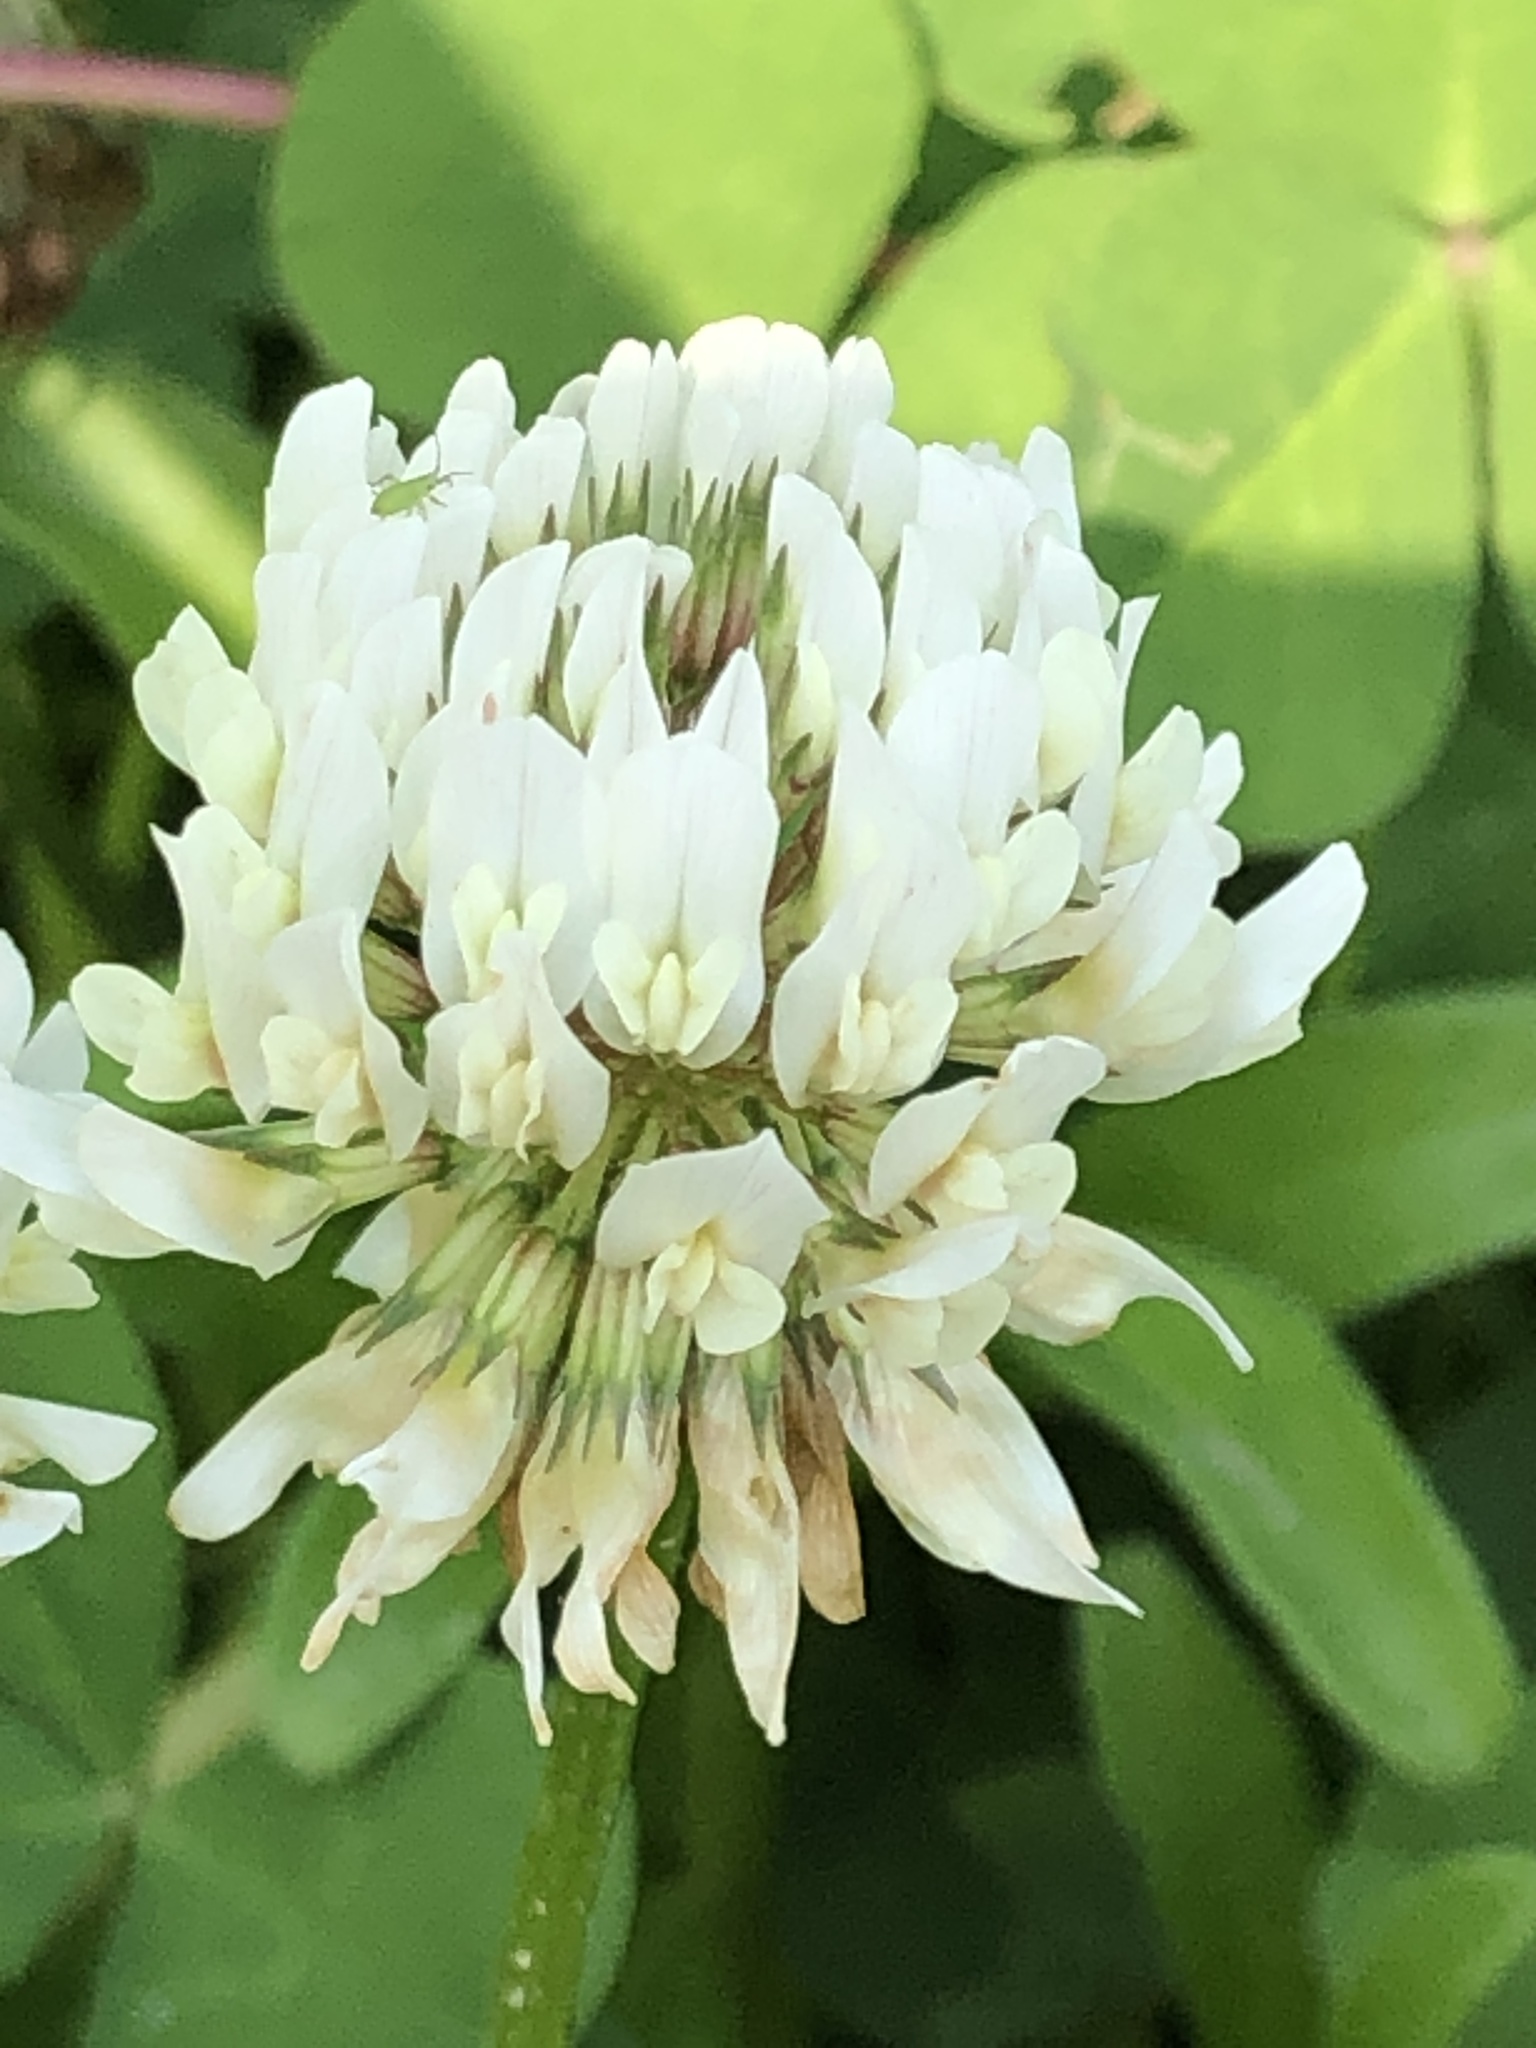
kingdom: Plantae
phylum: Tracheophyta
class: Magnoliopsida
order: Fabales
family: Fabaceae
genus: Trifolium
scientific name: Trifolium repens
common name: White clover
